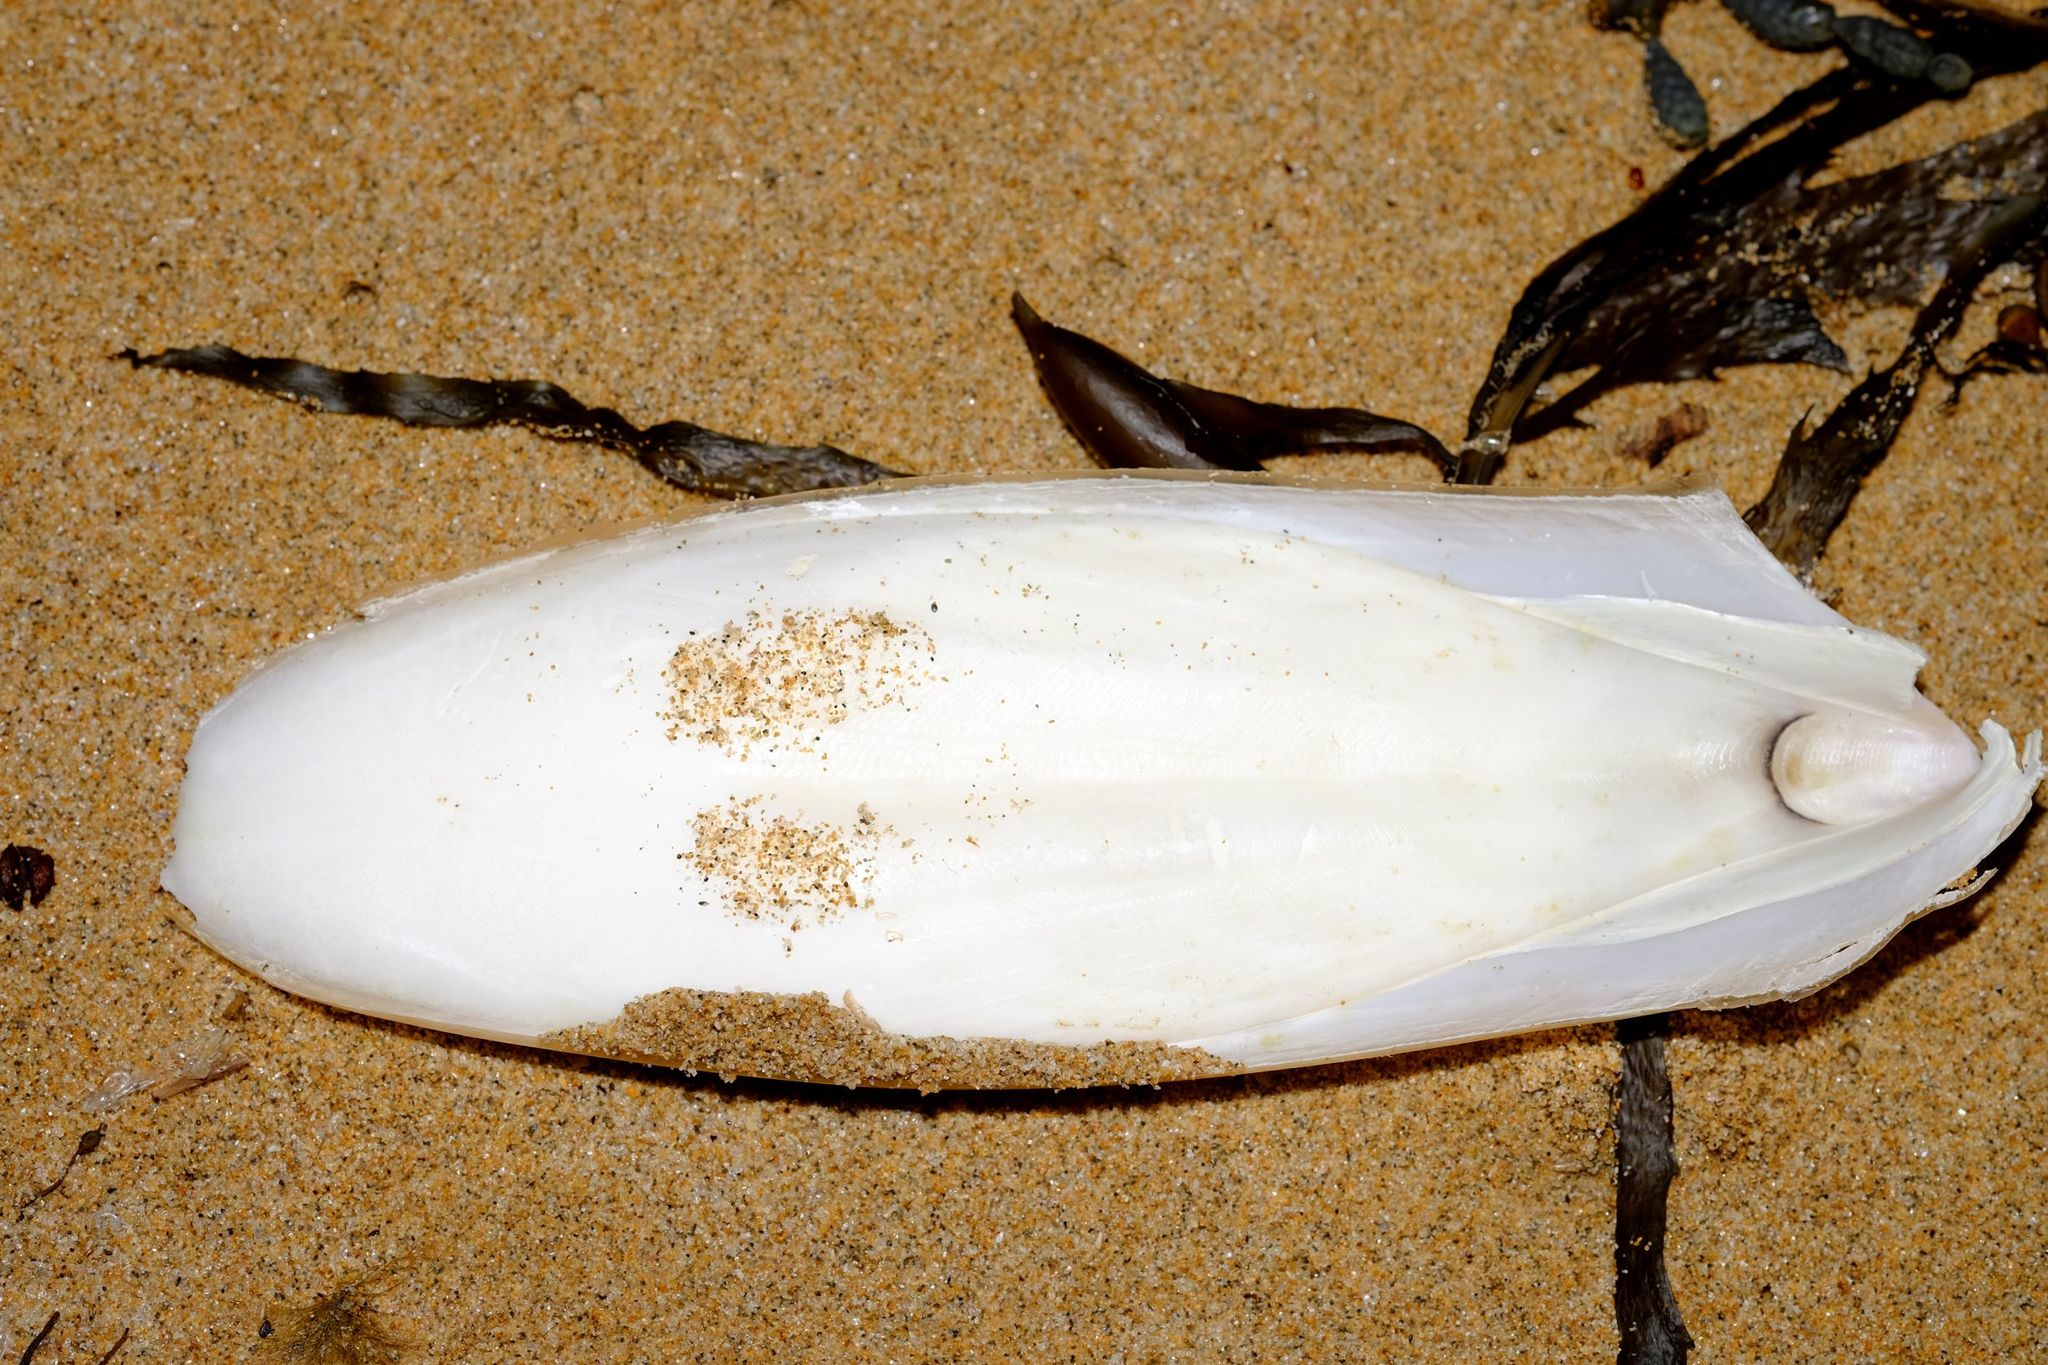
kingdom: Animalia
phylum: Mollusca
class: Cephalopoda
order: Sepiida
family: Sepiidae
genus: Ascarosepion
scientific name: Ascarosepion novaehollandiae
